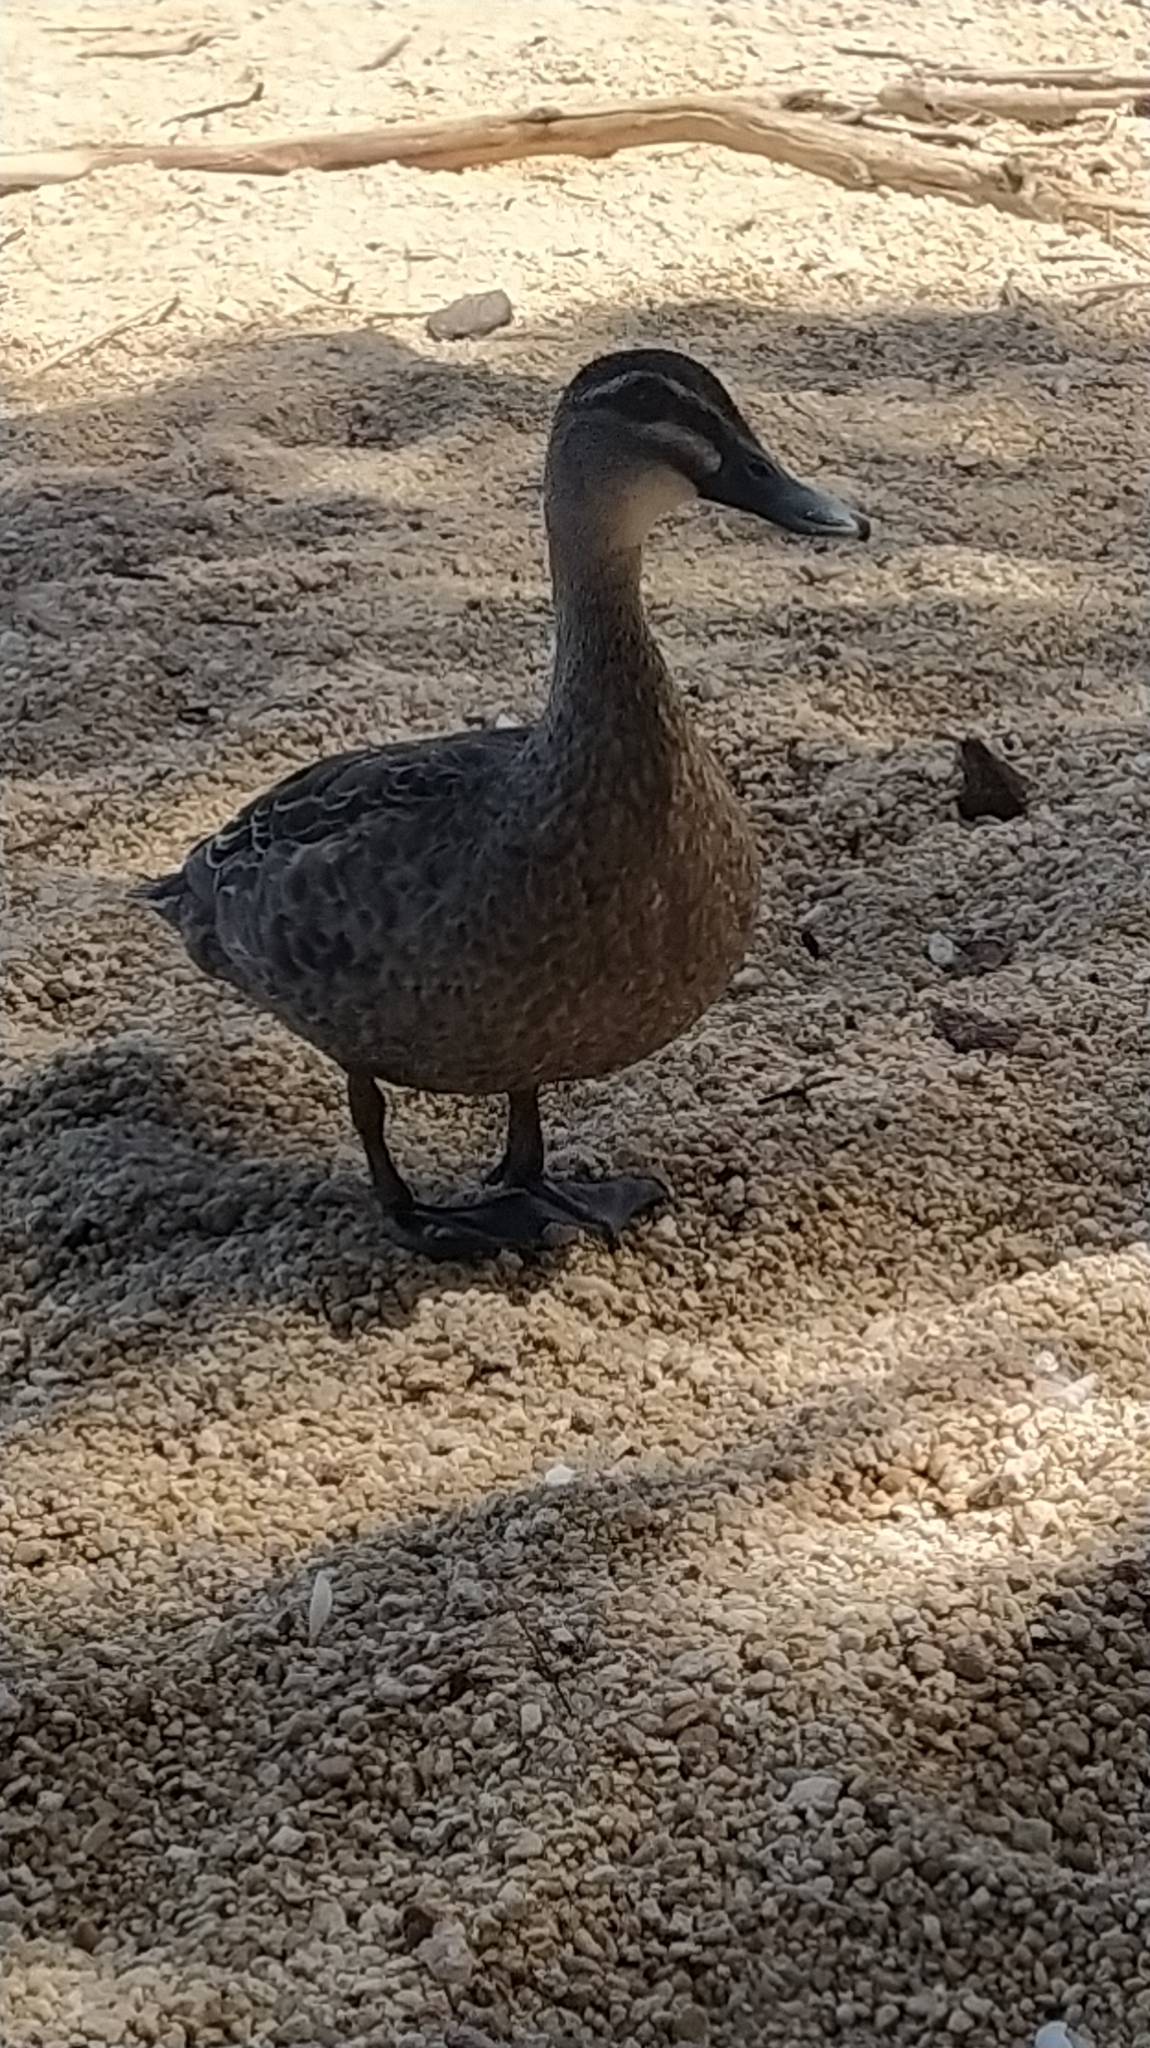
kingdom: Animalia
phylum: Chordata
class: Aves
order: Anseriformes
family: Anatidae
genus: Anas
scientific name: Anas
